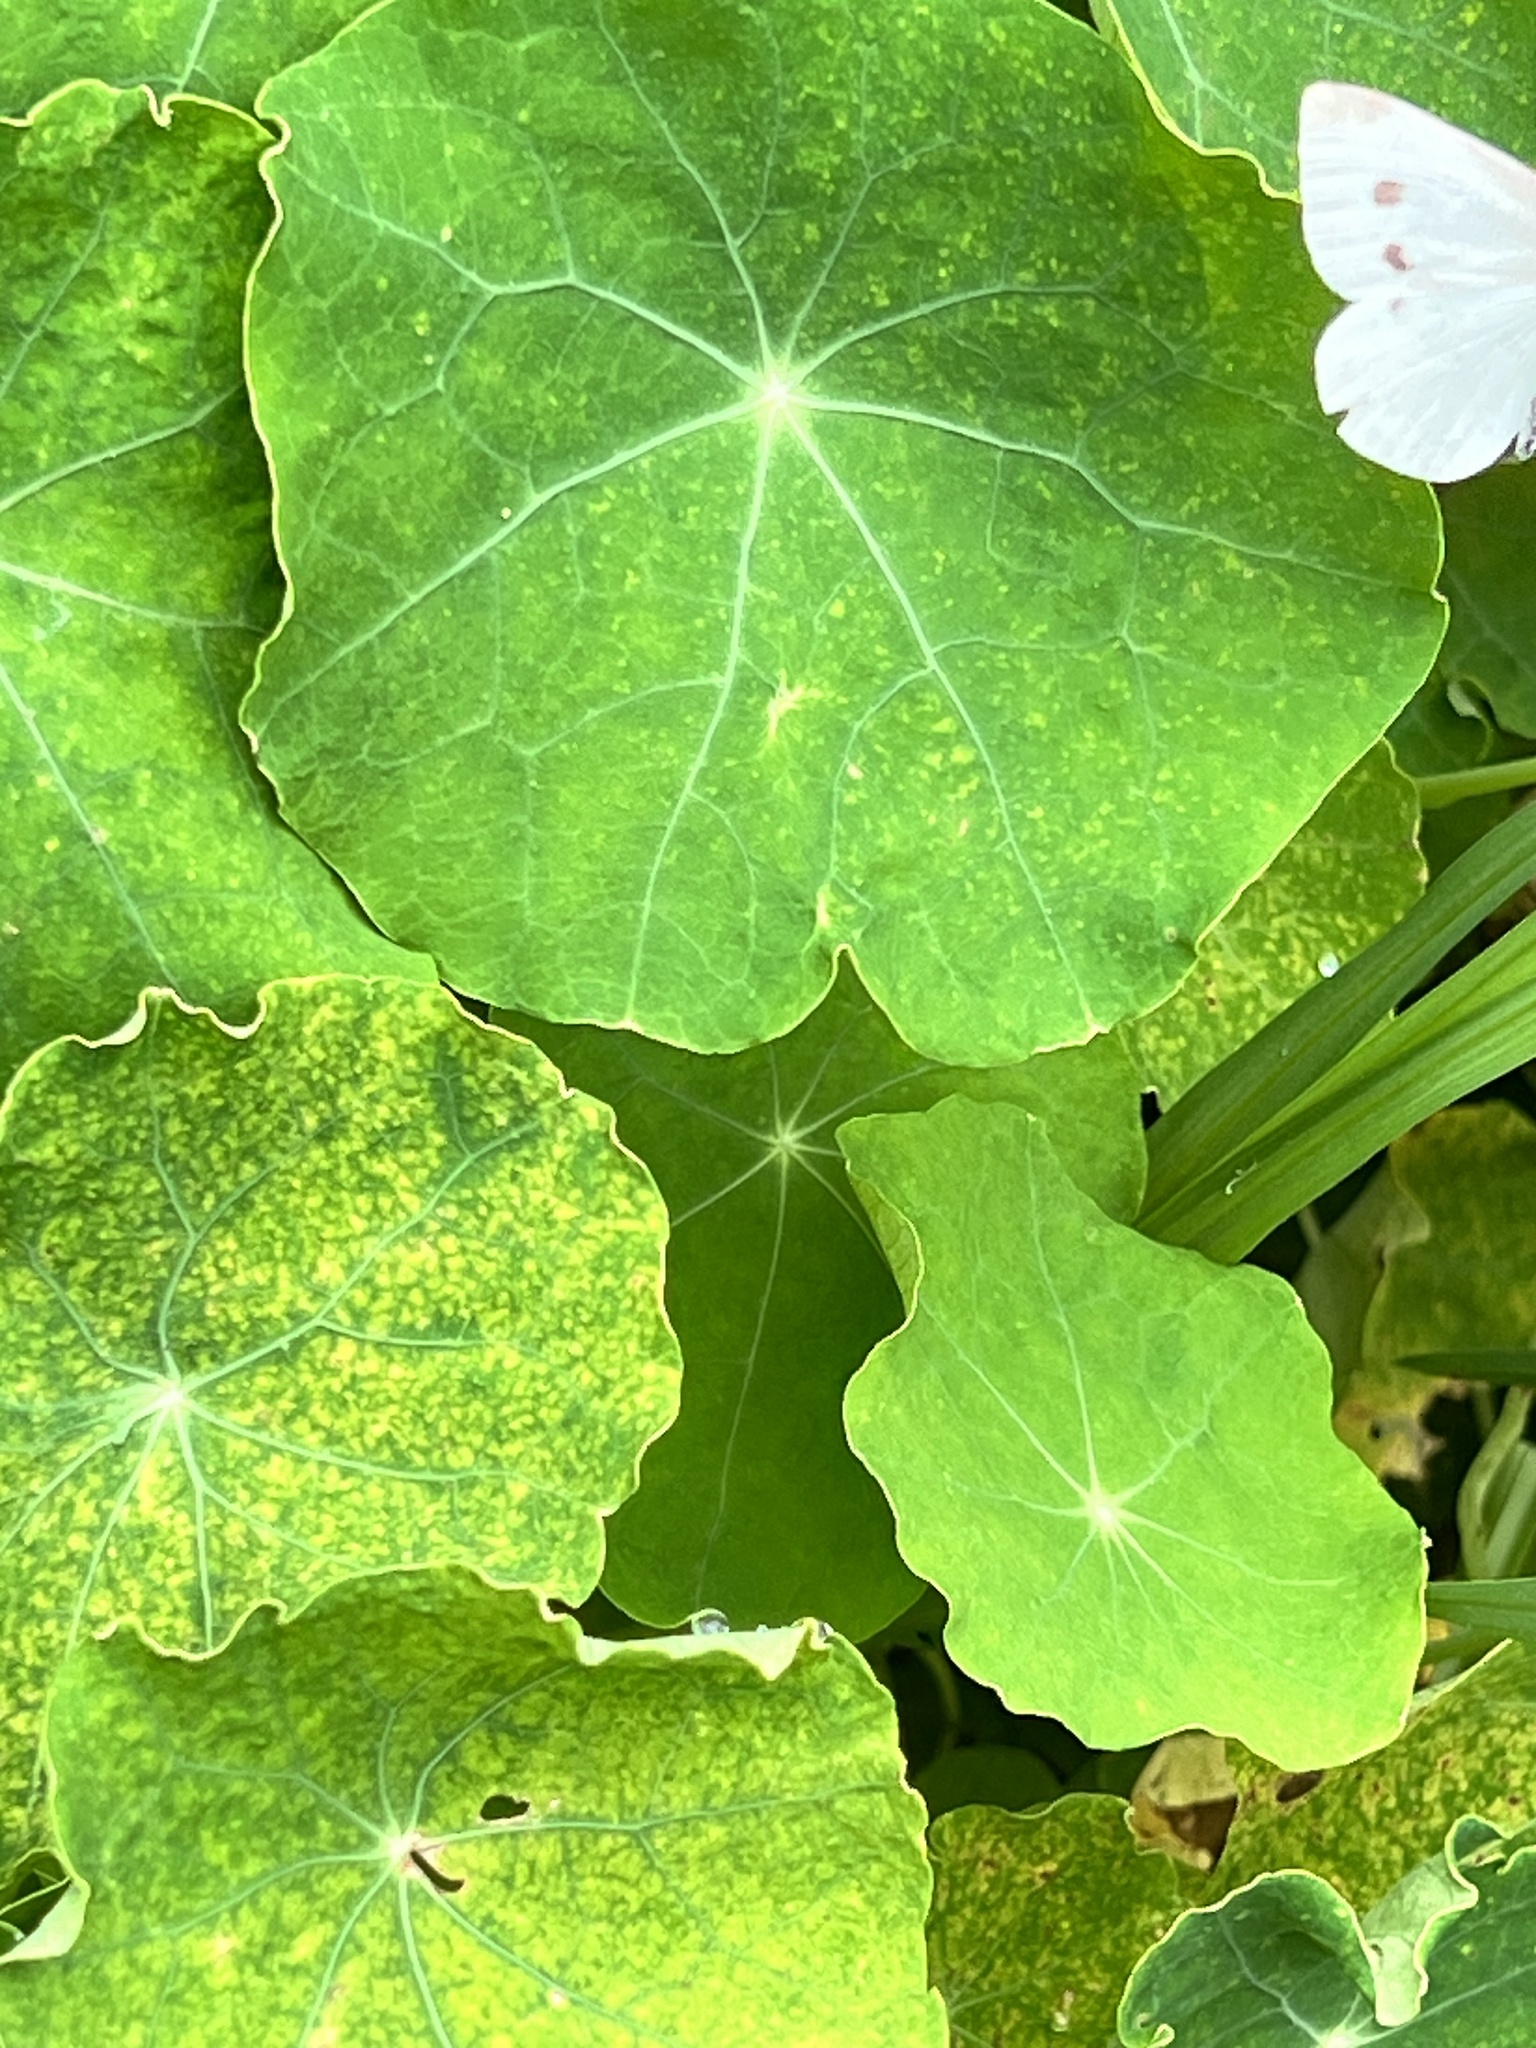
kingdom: Plantae
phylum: Tracheophyta
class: Magnoliopsida
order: Brassicales
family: Tropaeolaceae
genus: Tropaeolum
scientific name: Tropaeolum majus
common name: Nasturtium
